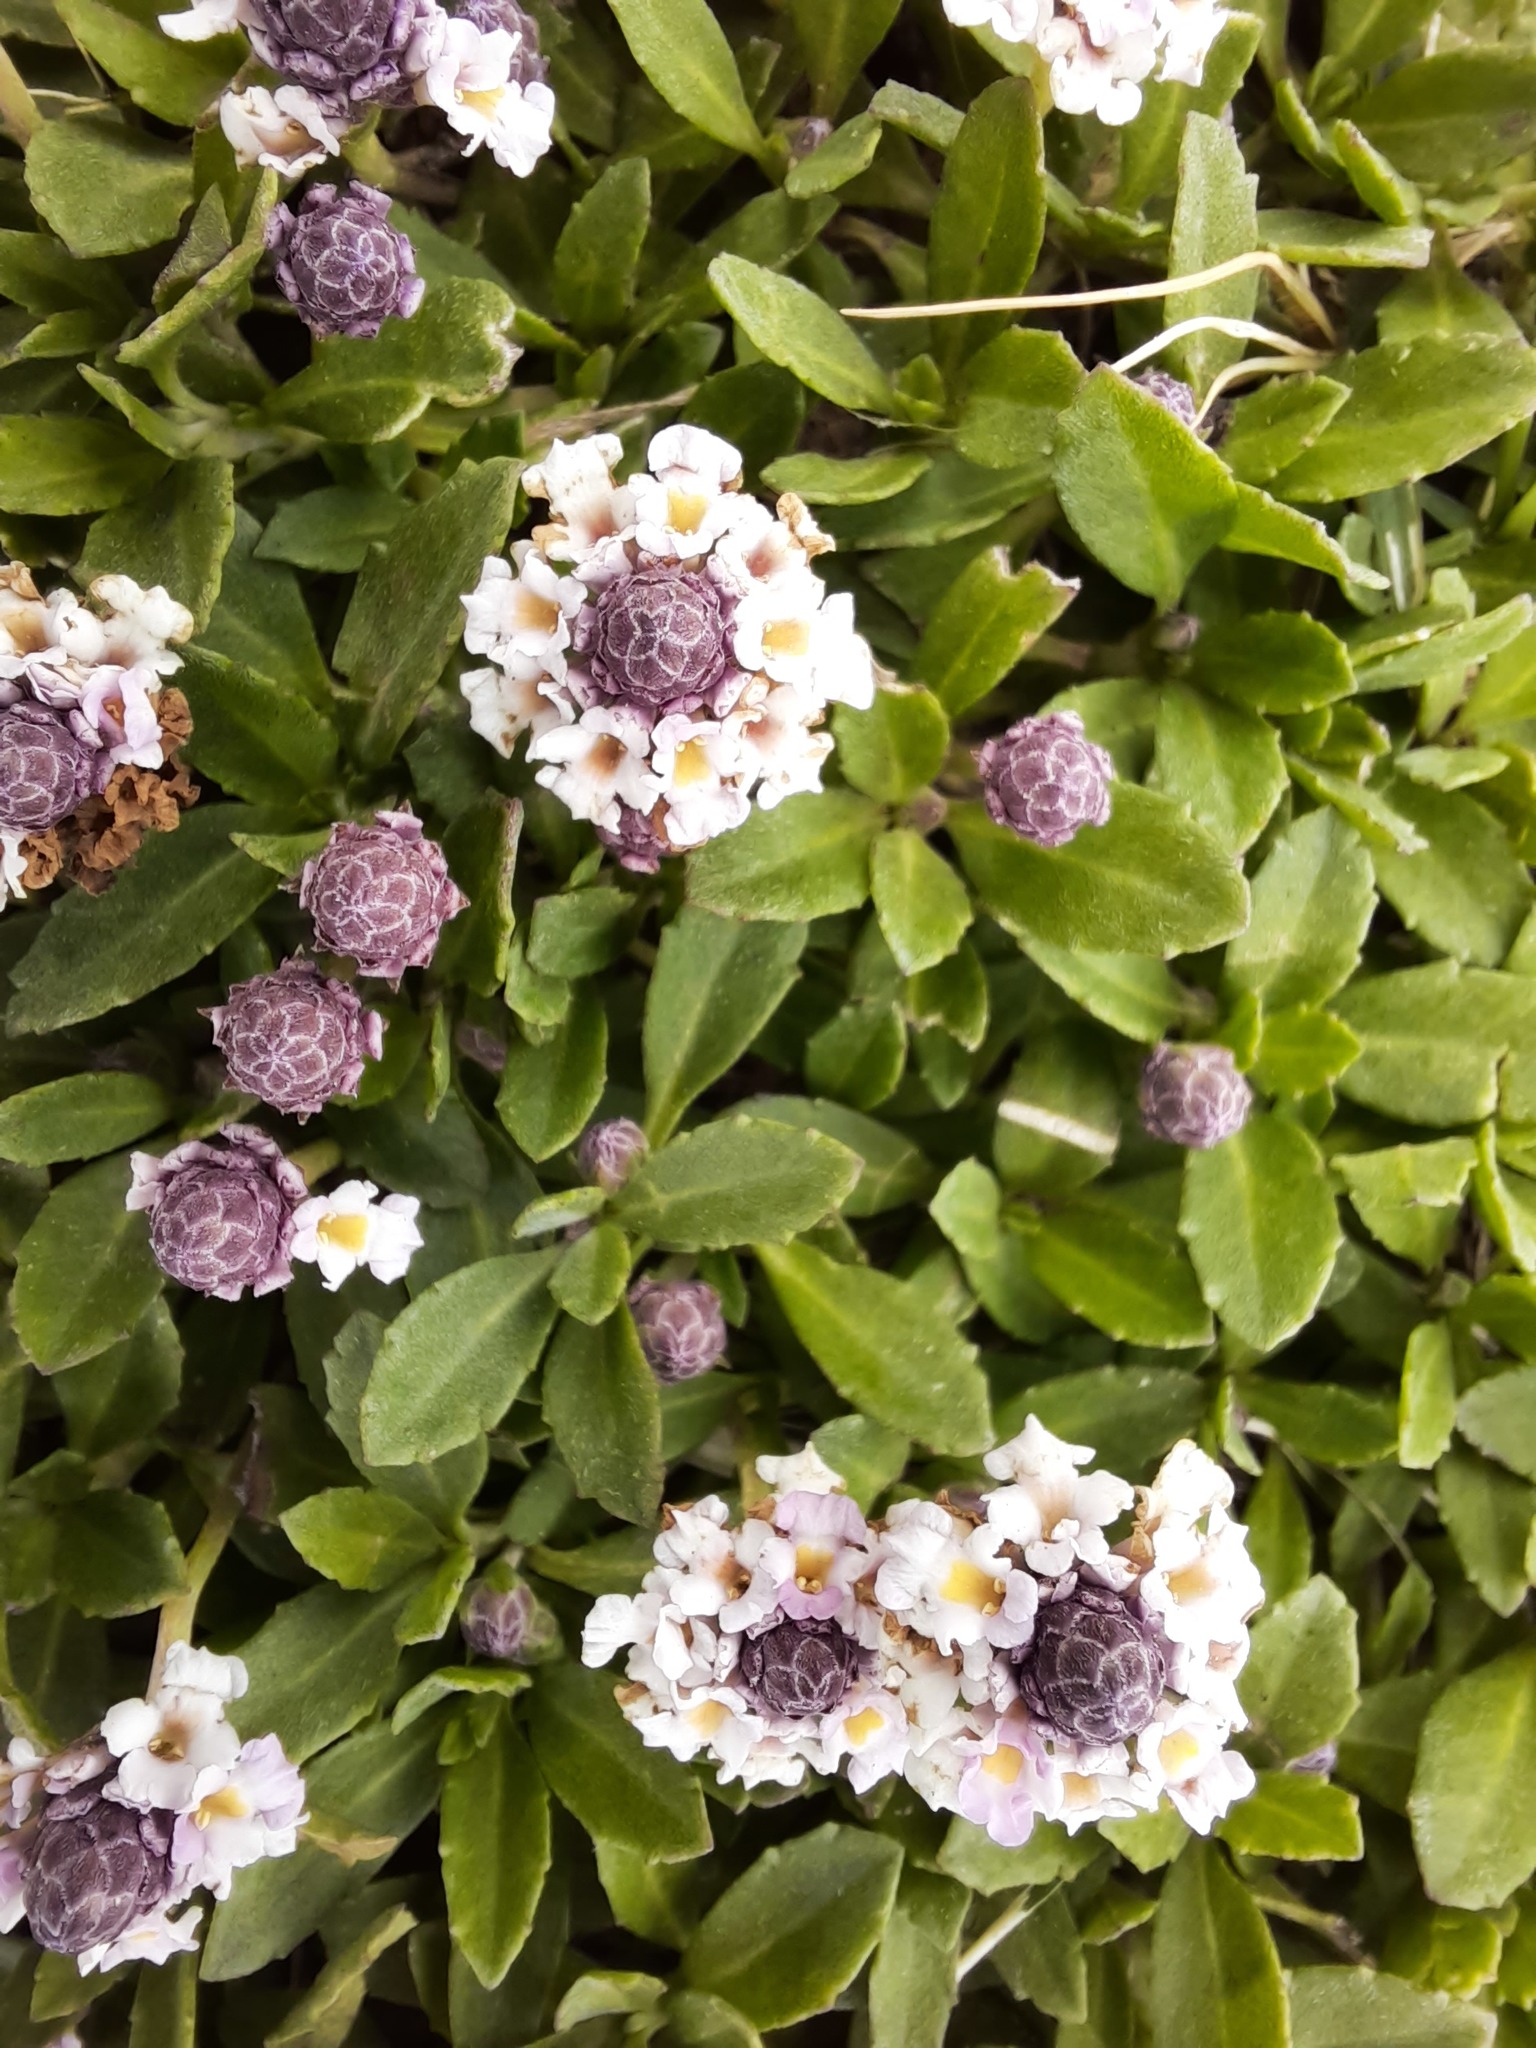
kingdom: Plantae
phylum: Tracheophyta
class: Magnoliopsida
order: Lamiales
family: Verbenaceae
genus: Phyla
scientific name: Phyla nodiflora
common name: Frogfruit
